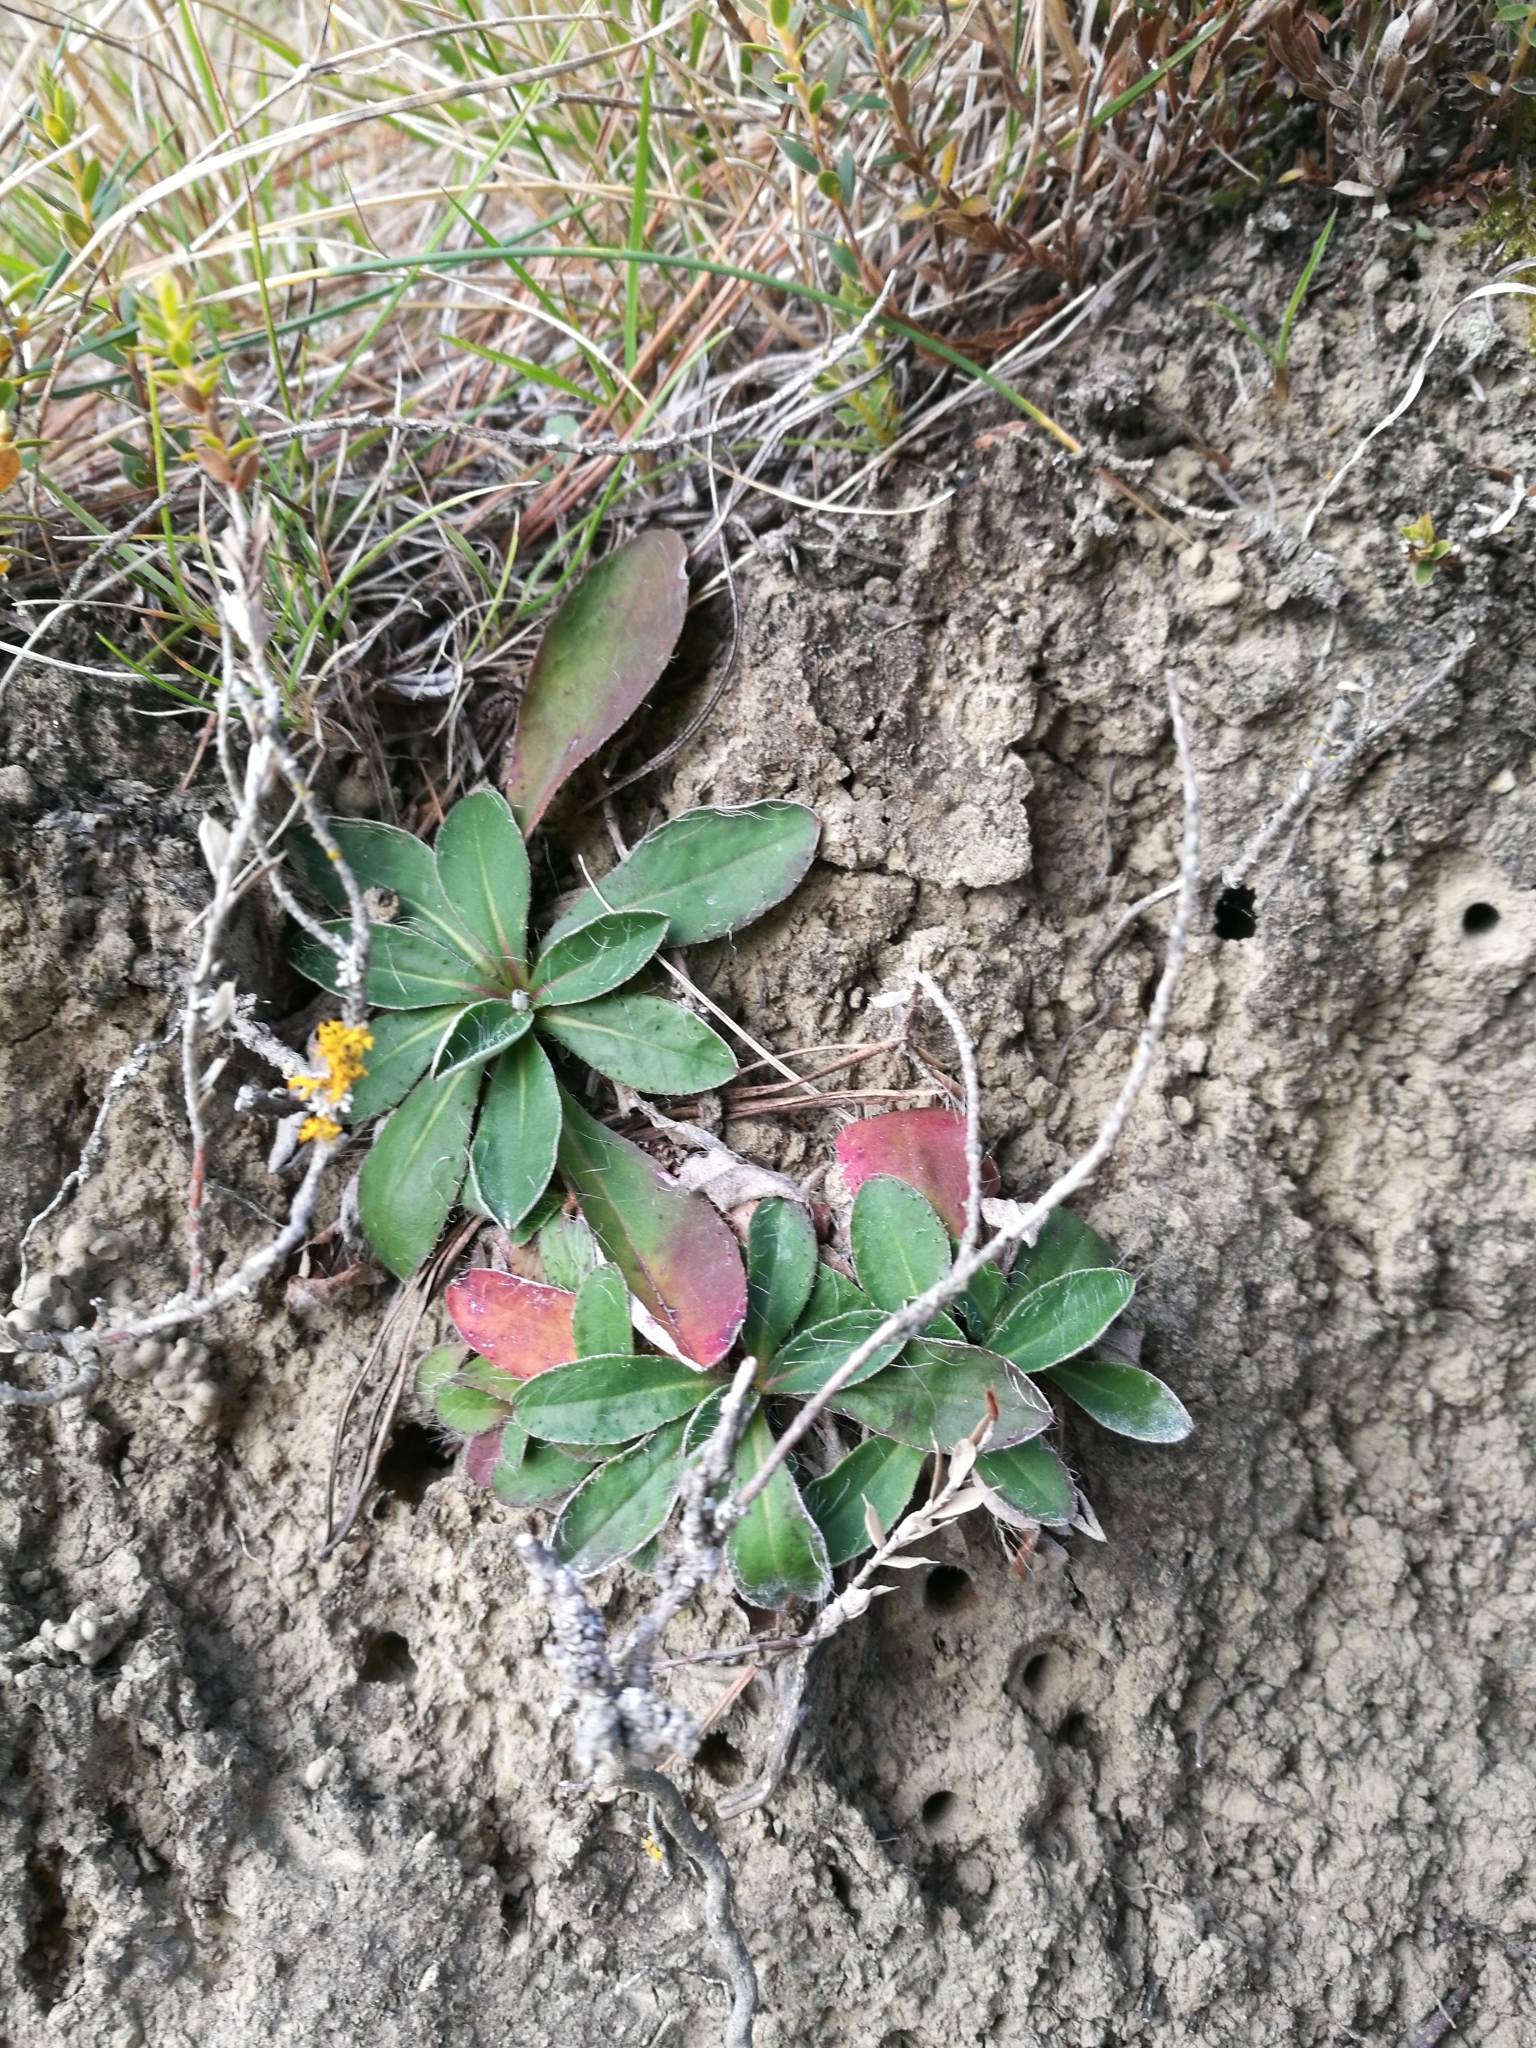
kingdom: Plantae
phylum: Tracheophyta
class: Magnoliopsida
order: Asterales
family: Asteraceae
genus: Pilosella
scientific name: Pilosella officinarum
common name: Mouse-ear hawkweed
